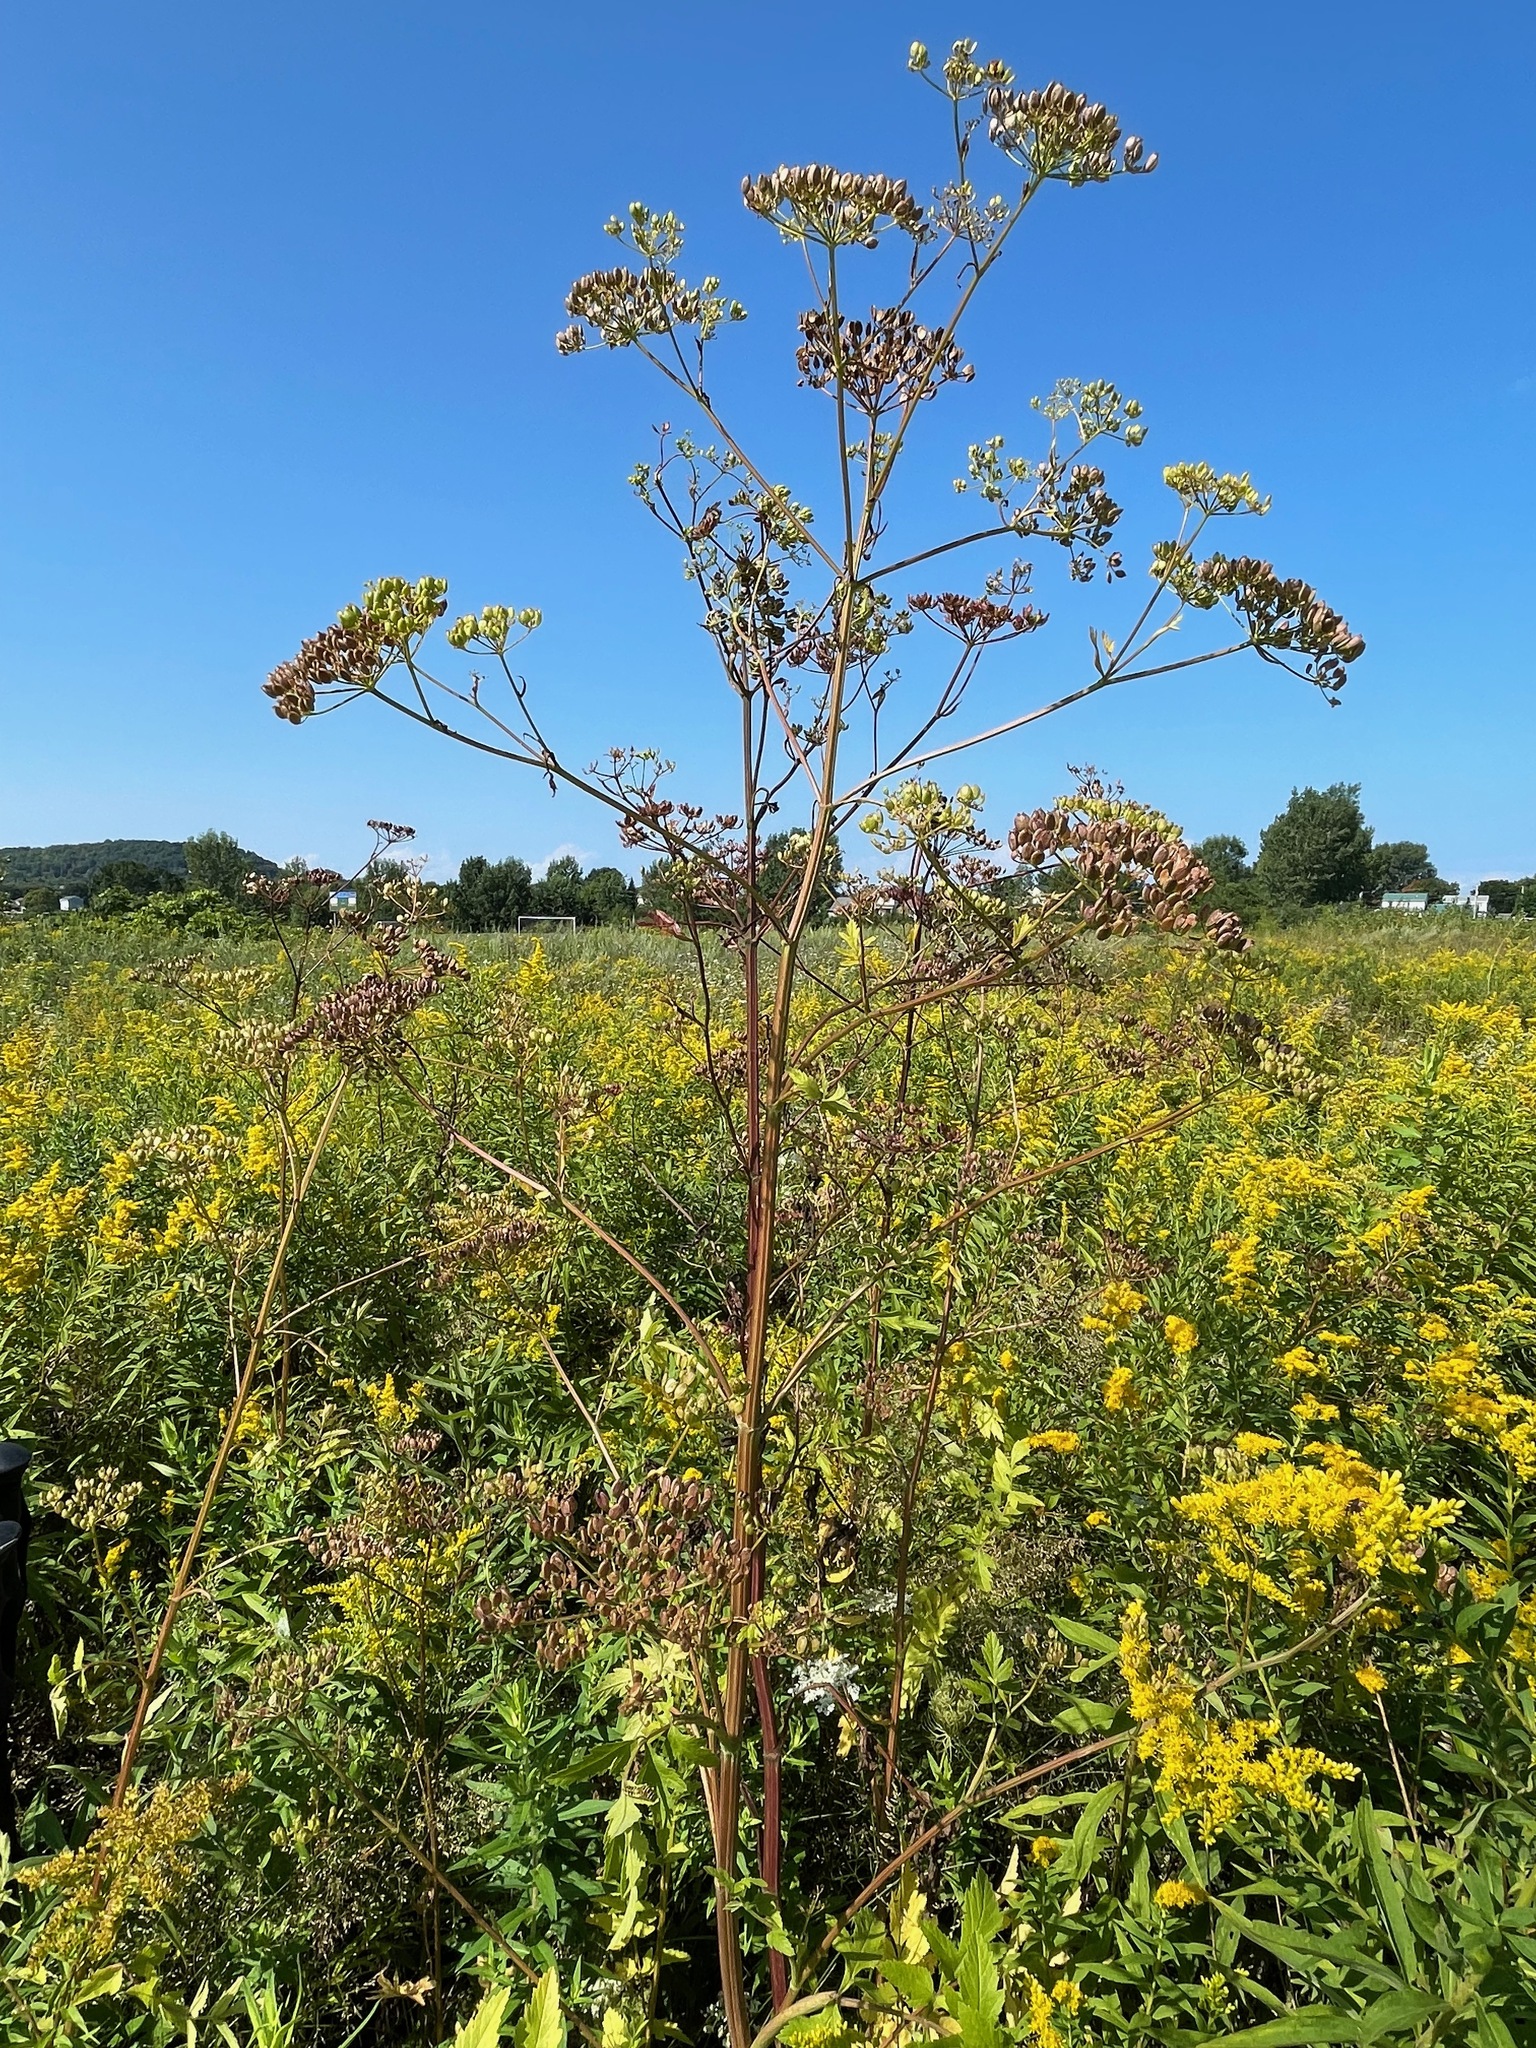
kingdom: Plantae
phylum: Tracheophyta
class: Magnoliopsida
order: Apiales
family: Apiaceae
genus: Pastinaca
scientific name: Pastinaca sativa
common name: Wild parsnip
